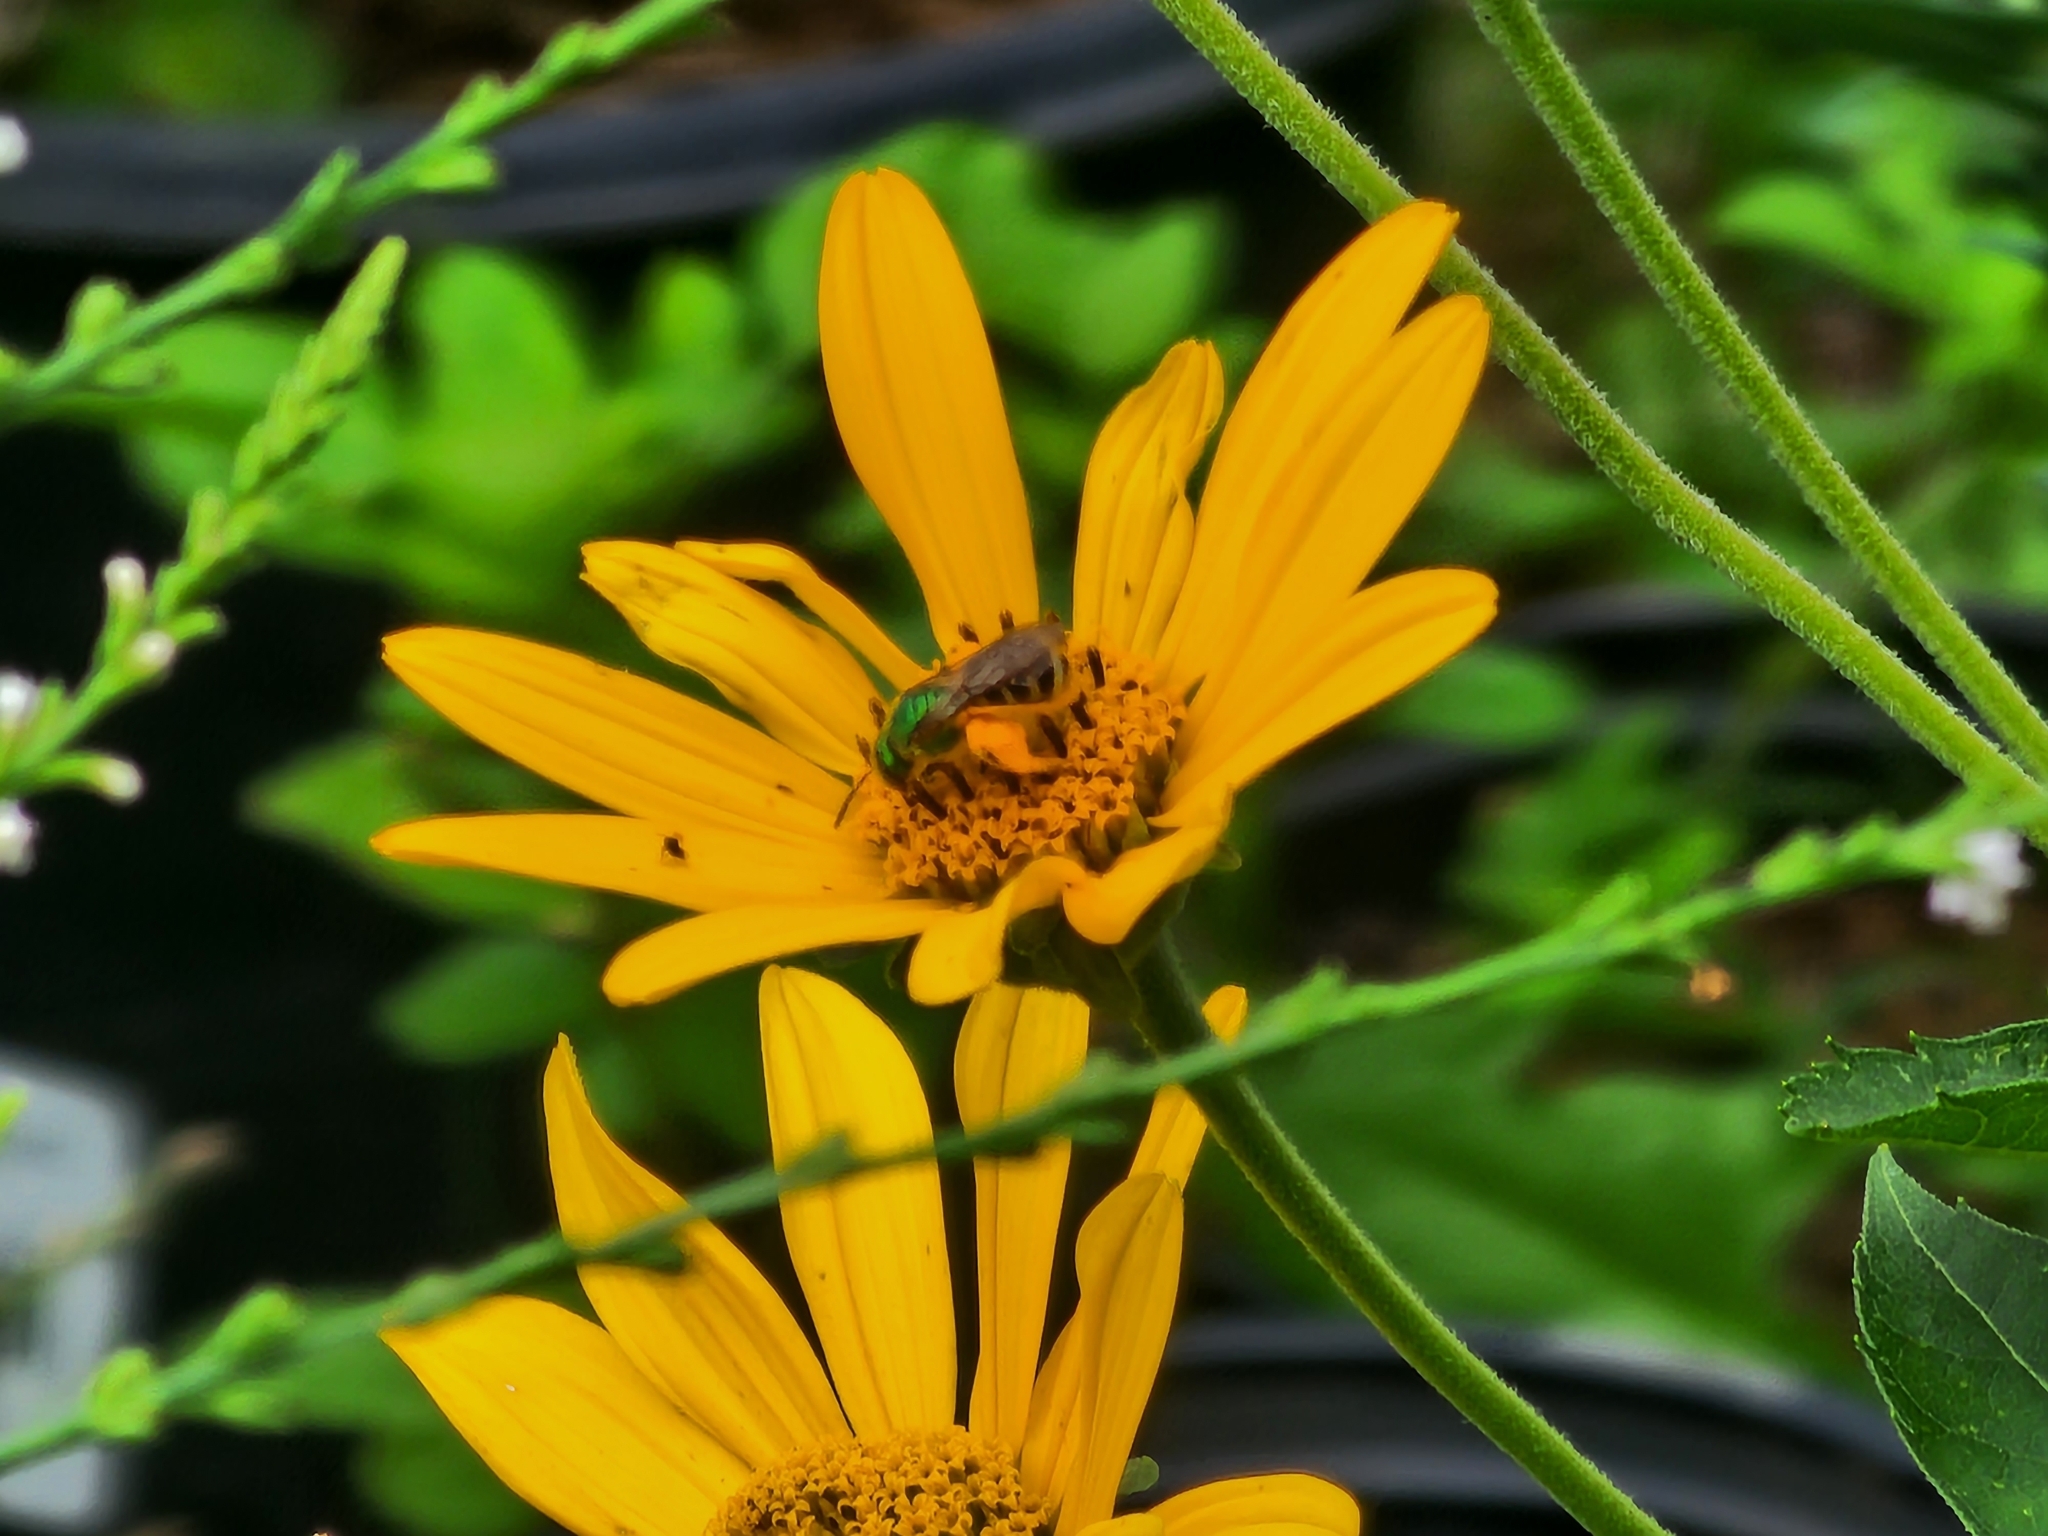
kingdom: Animalia
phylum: Arthropoda
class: Insecta
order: Hymenoptera
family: Halictidae
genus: Agapostemon
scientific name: Agapostemon virescens
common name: Bicolored striped sweat bee
